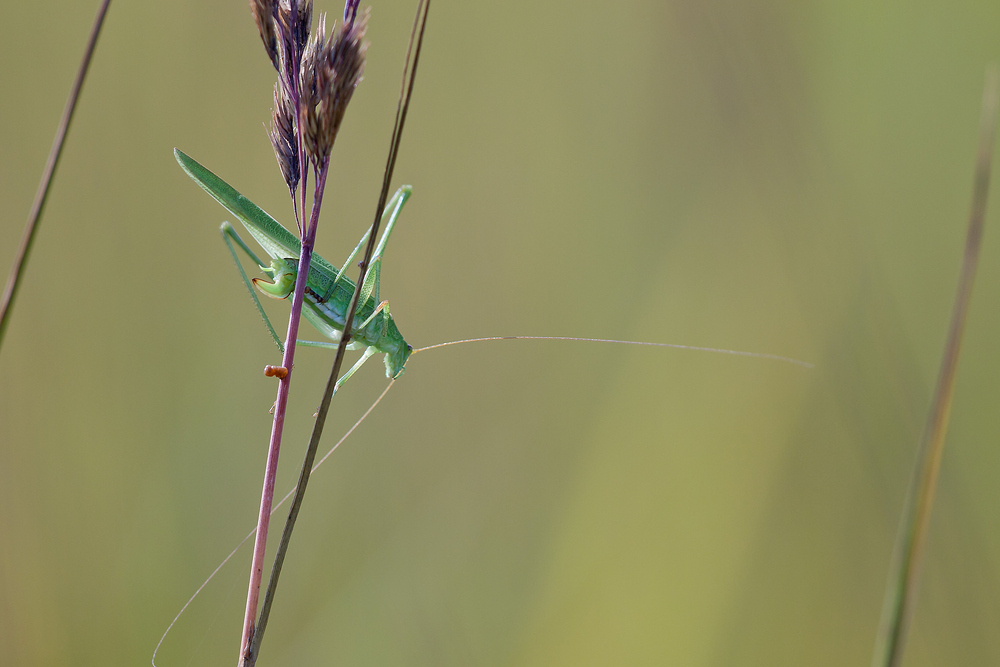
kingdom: Animalia
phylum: Arthropoda
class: Insecta
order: Orthoptera
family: Tettigoniidae
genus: Phaneroptera
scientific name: Phaneroptera falcata
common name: Sickle-bearing bush-cricket
